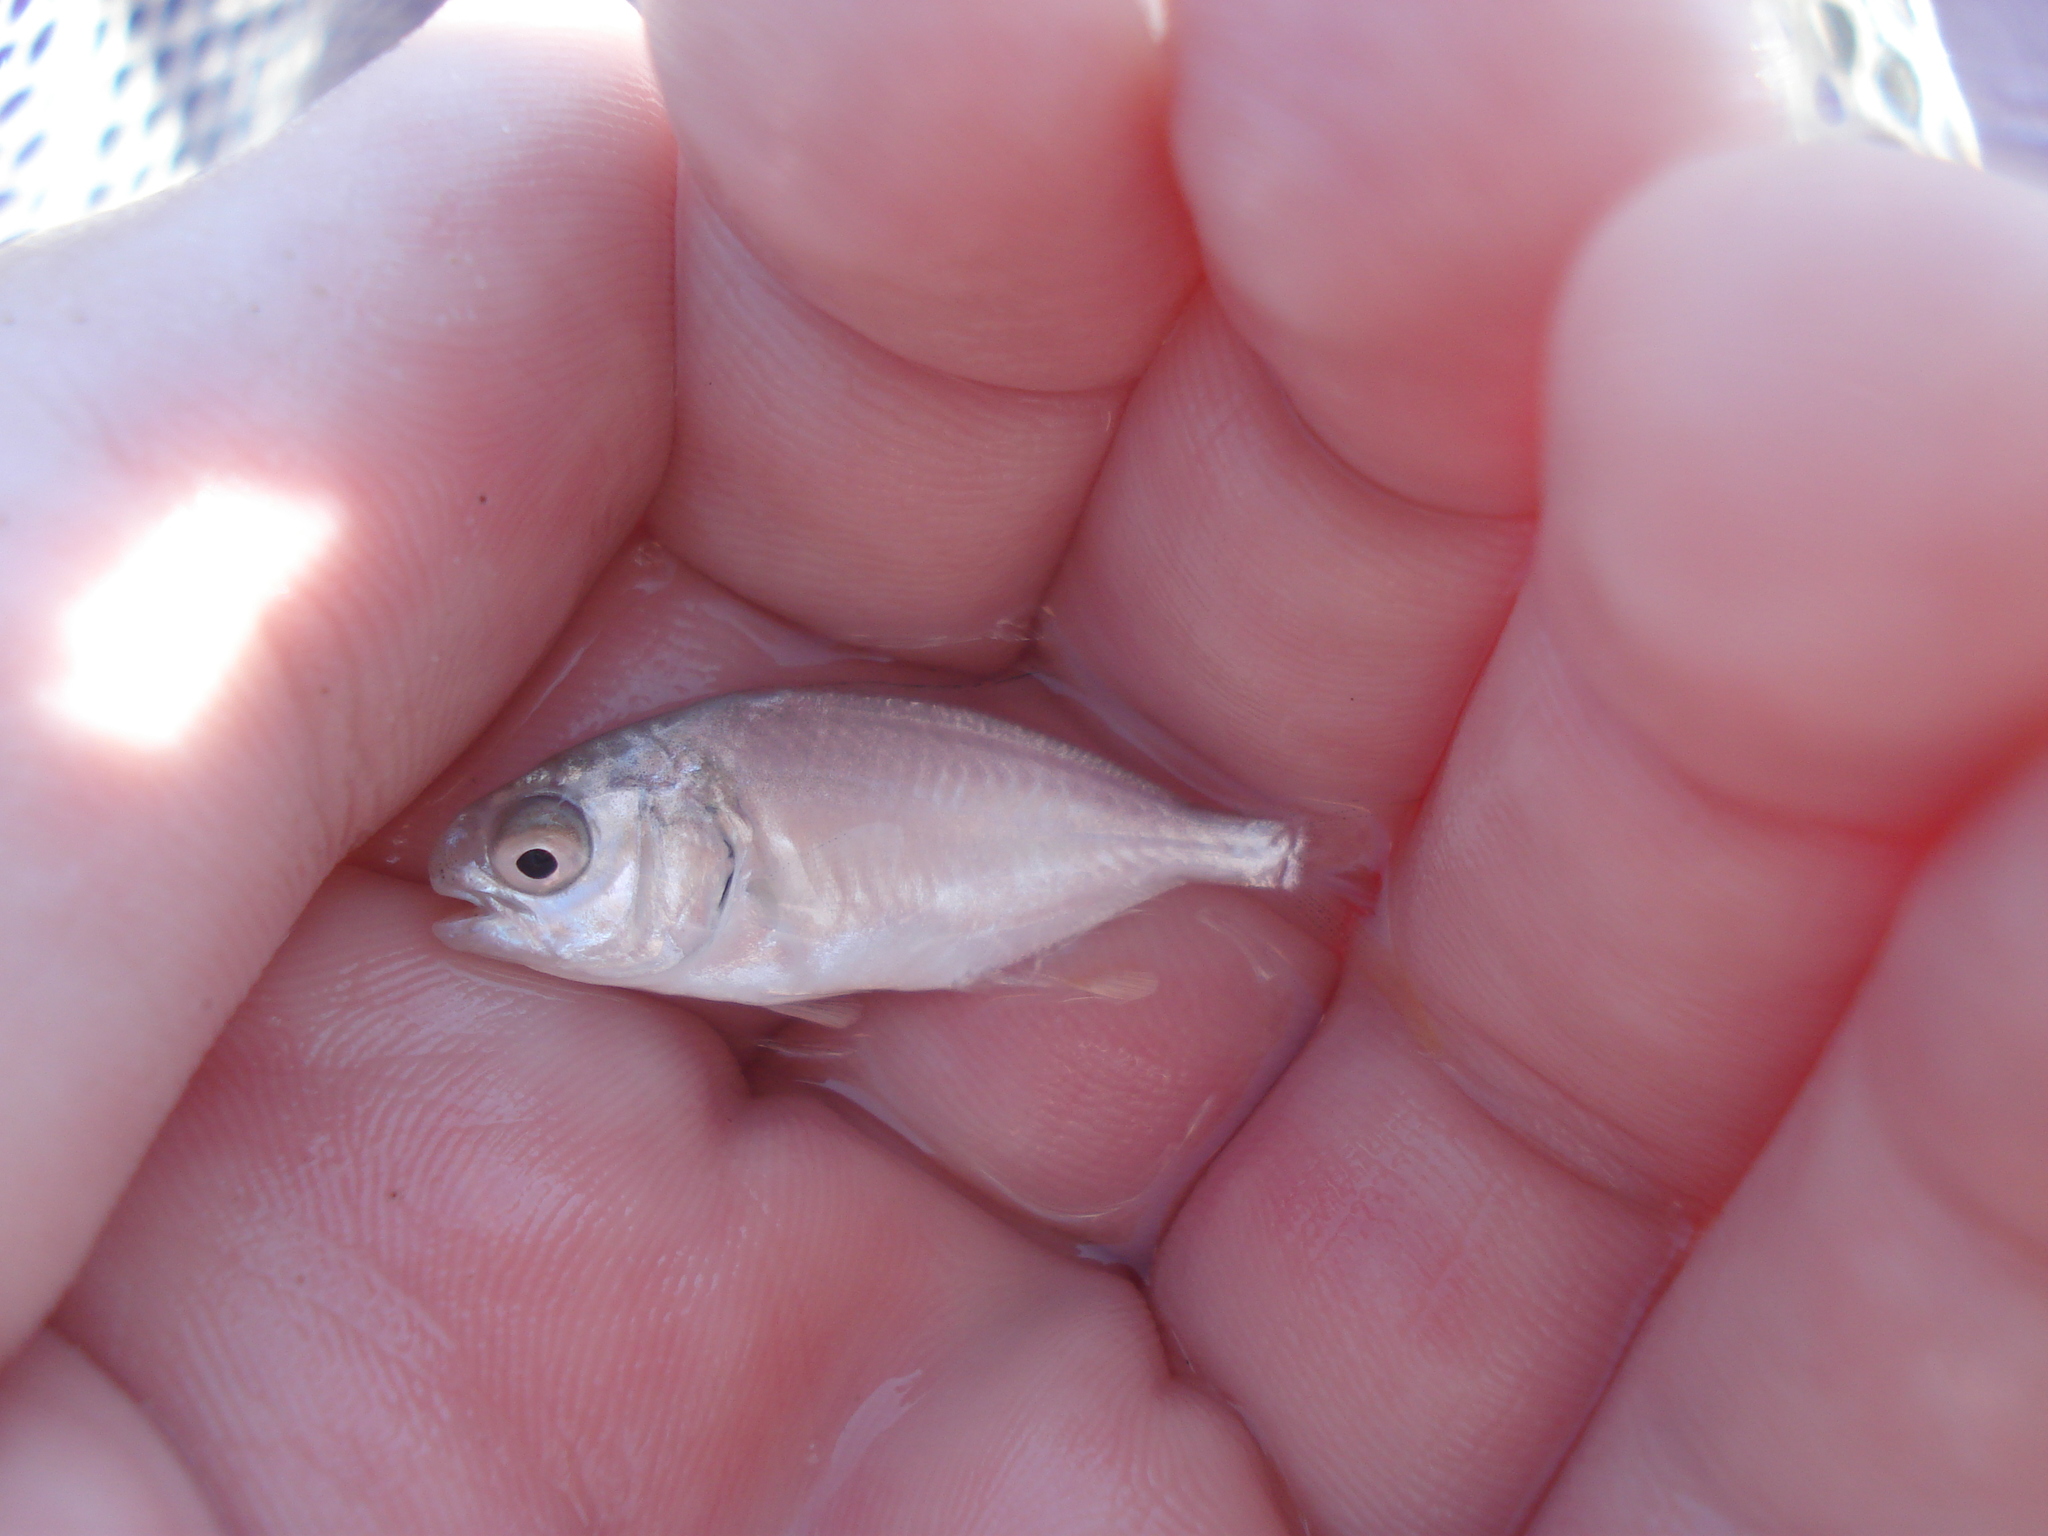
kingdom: Animalia
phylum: Chordata
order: Perciformes
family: Carangidae
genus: Trachinotus
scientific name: Trachinotus carolinus
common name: Florida pompano
